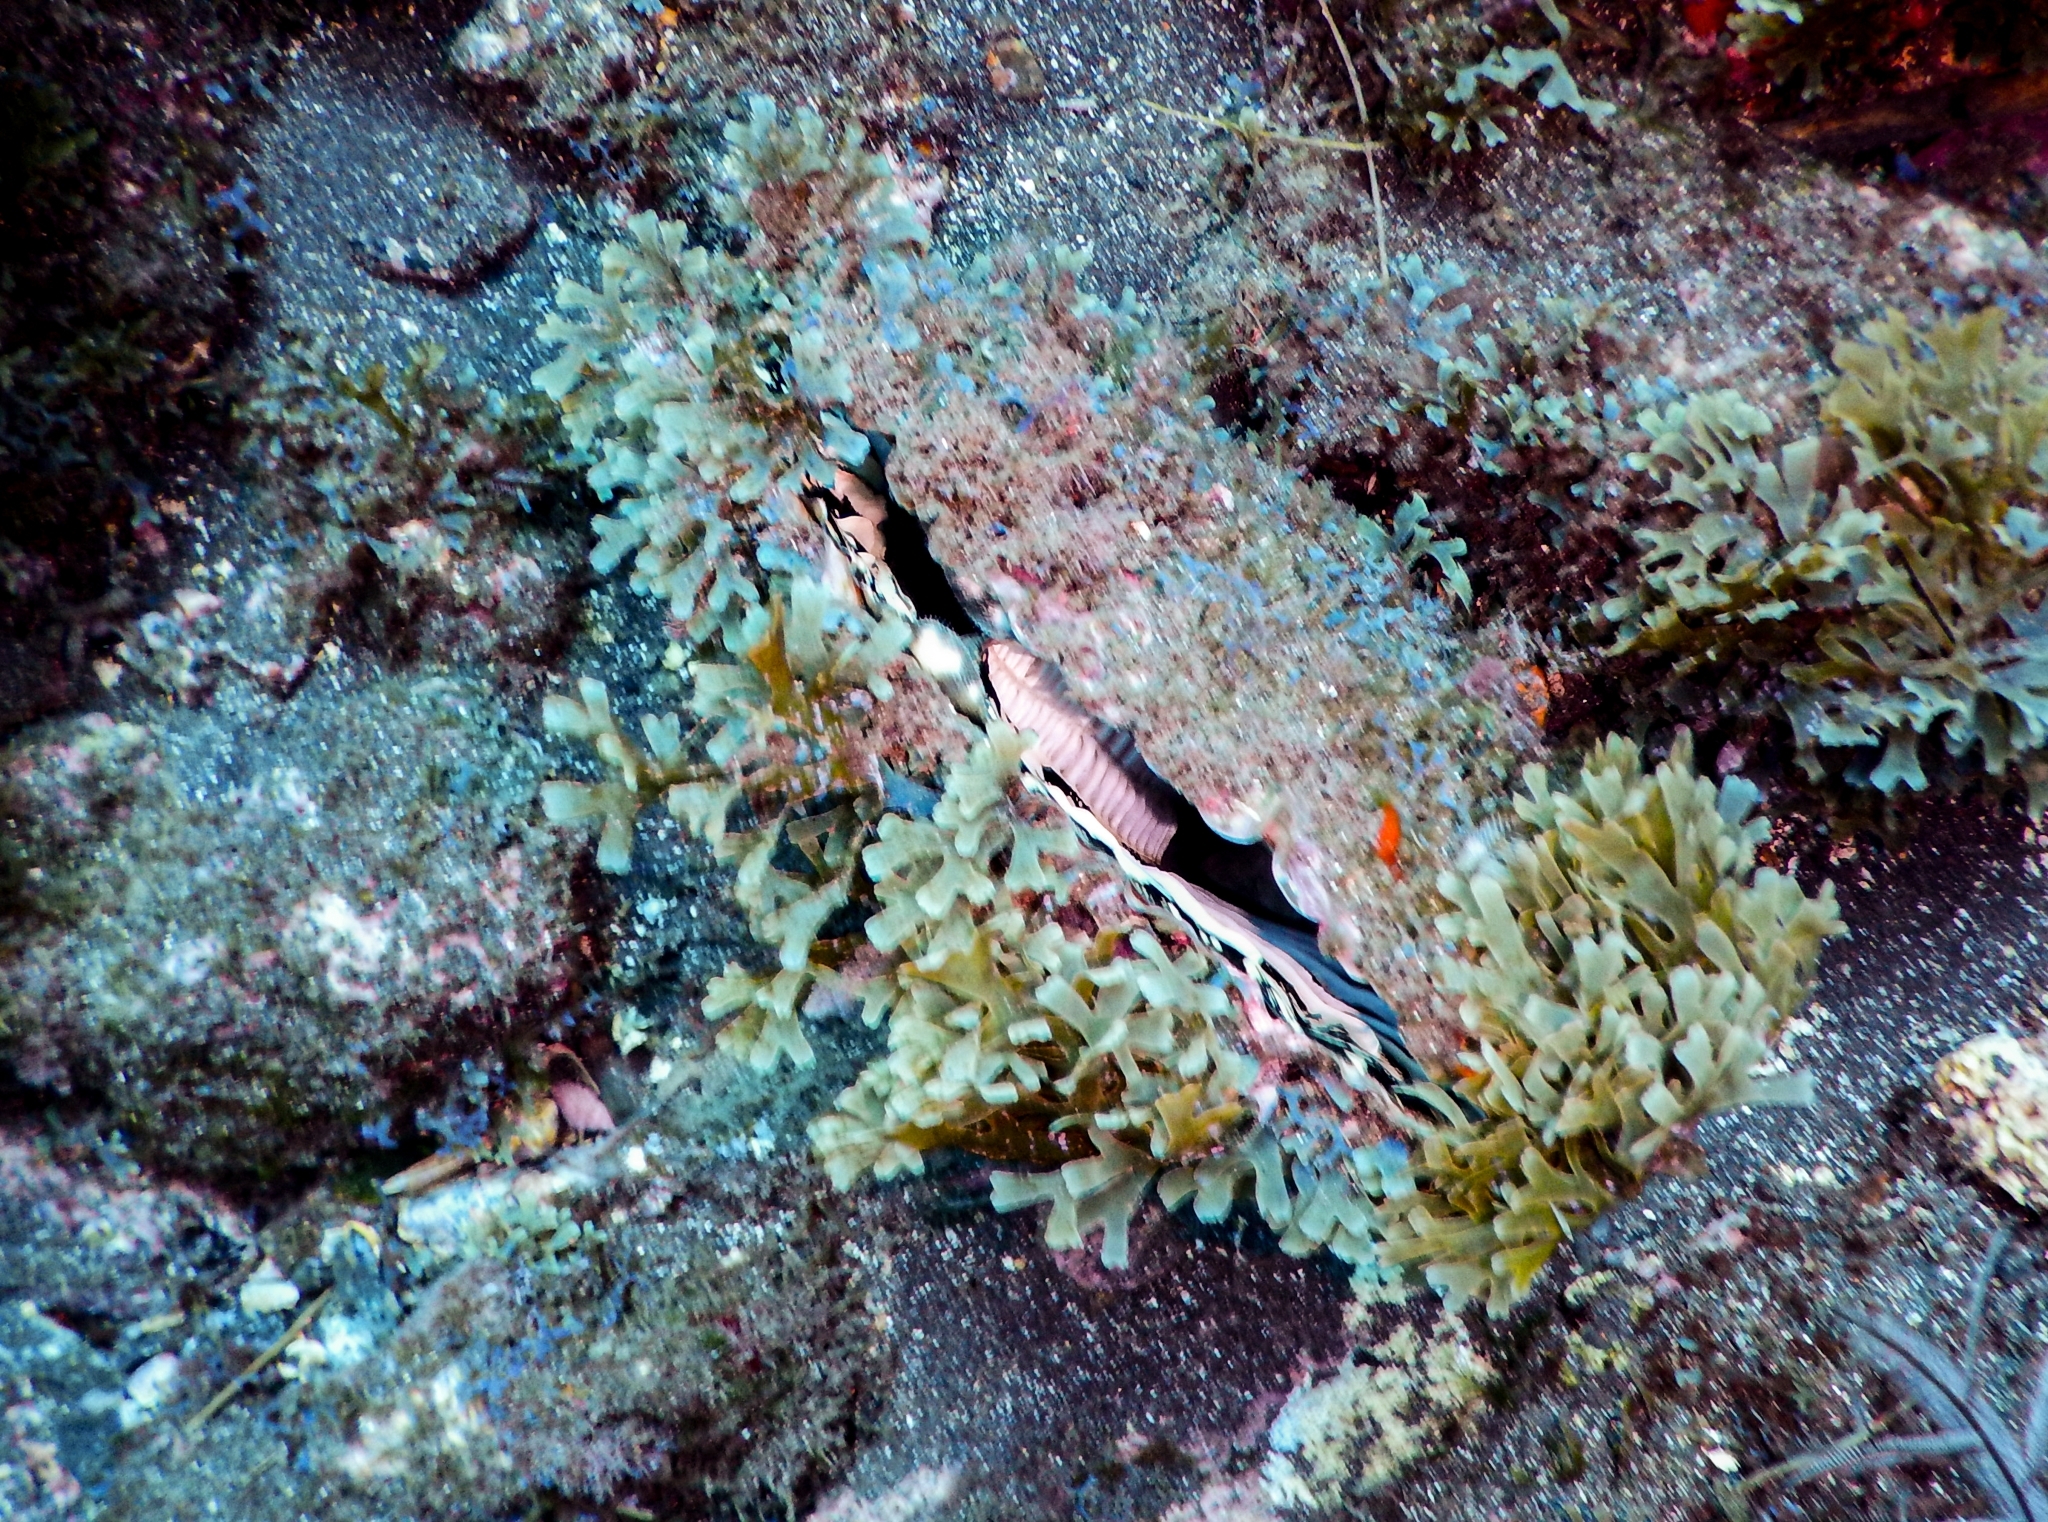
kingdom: Animalia
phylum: Mollusca
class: Bivalvia
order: Ostreida
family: Pinnidae
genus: Pinna
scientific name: Pinna rudis
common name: Rough penshell
